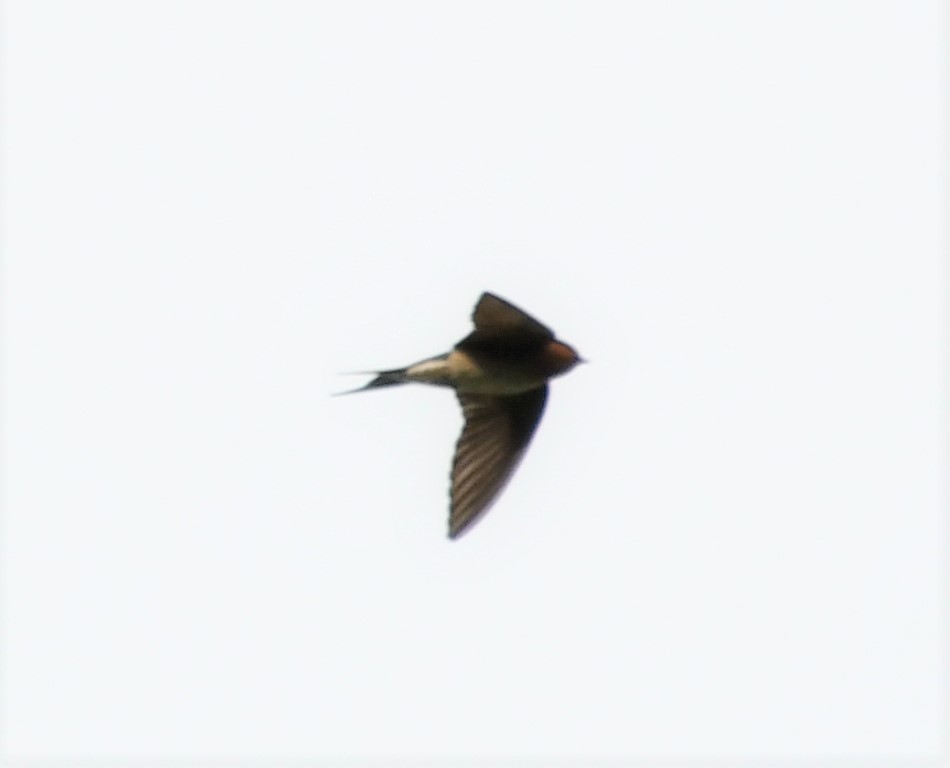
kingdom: Animalia
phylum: Chordata
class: Aves
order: Passeriformes
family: Hirundinidae
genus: Hirundo
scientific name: Hirundo neoxena
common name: Welcome swallow
